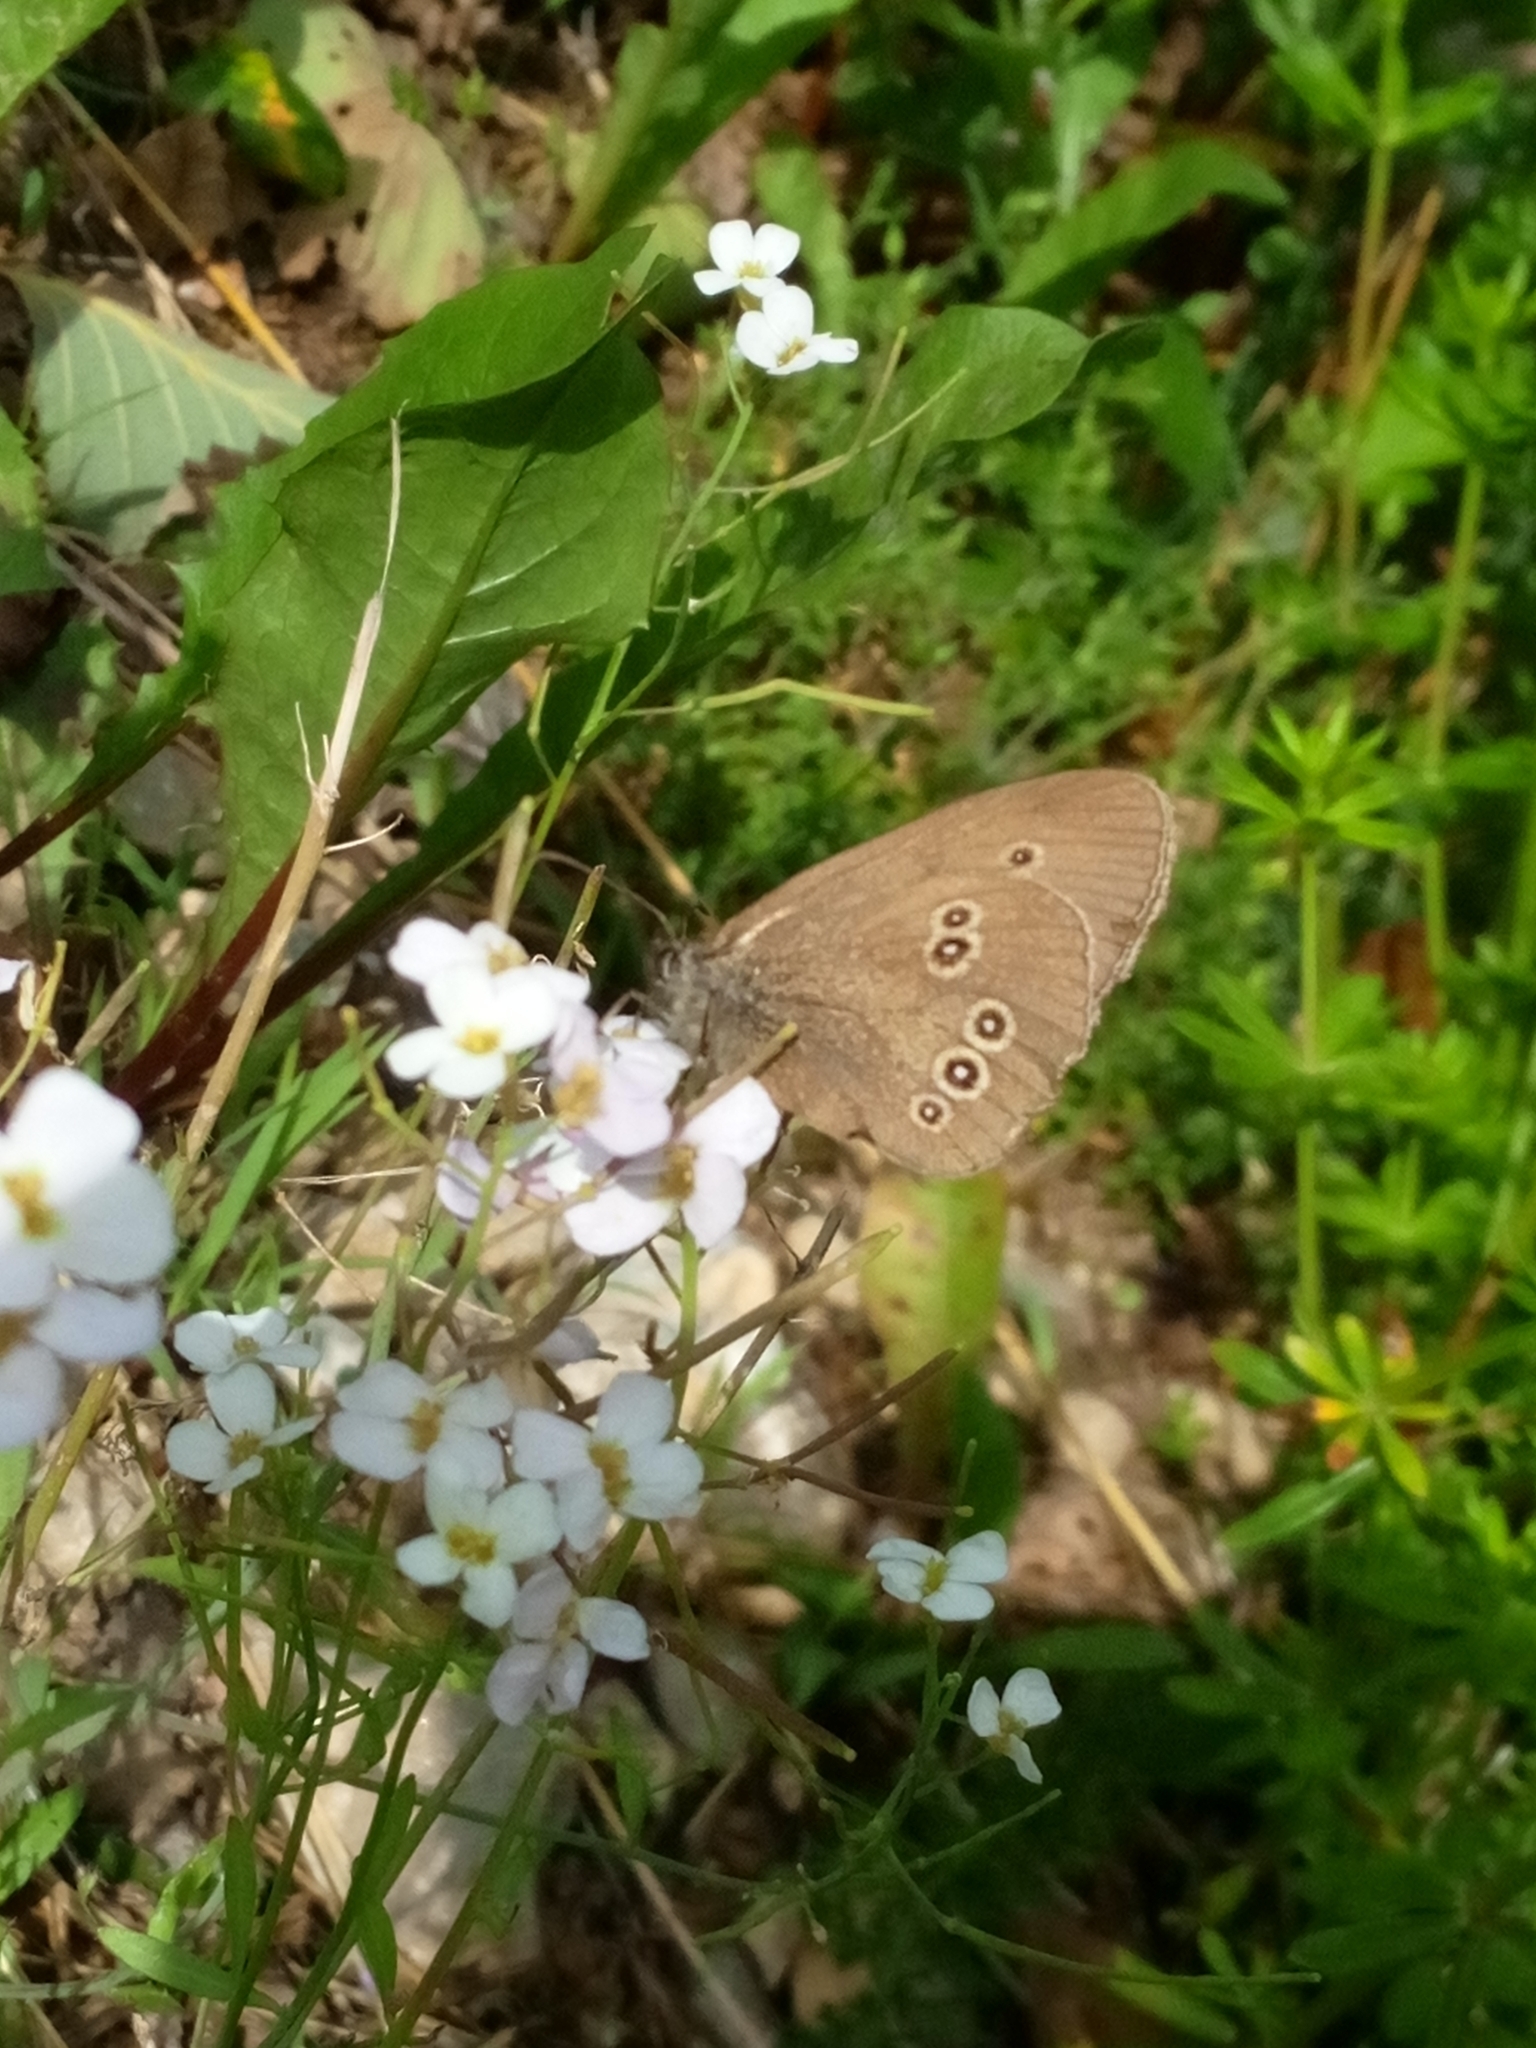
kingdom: Animalia
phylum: Arthropoda
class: Insecta
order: Lepidoptera
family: Nymphalidae
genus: Aphantopus
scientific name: Aphantopus hyperantus
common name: Ringlet
